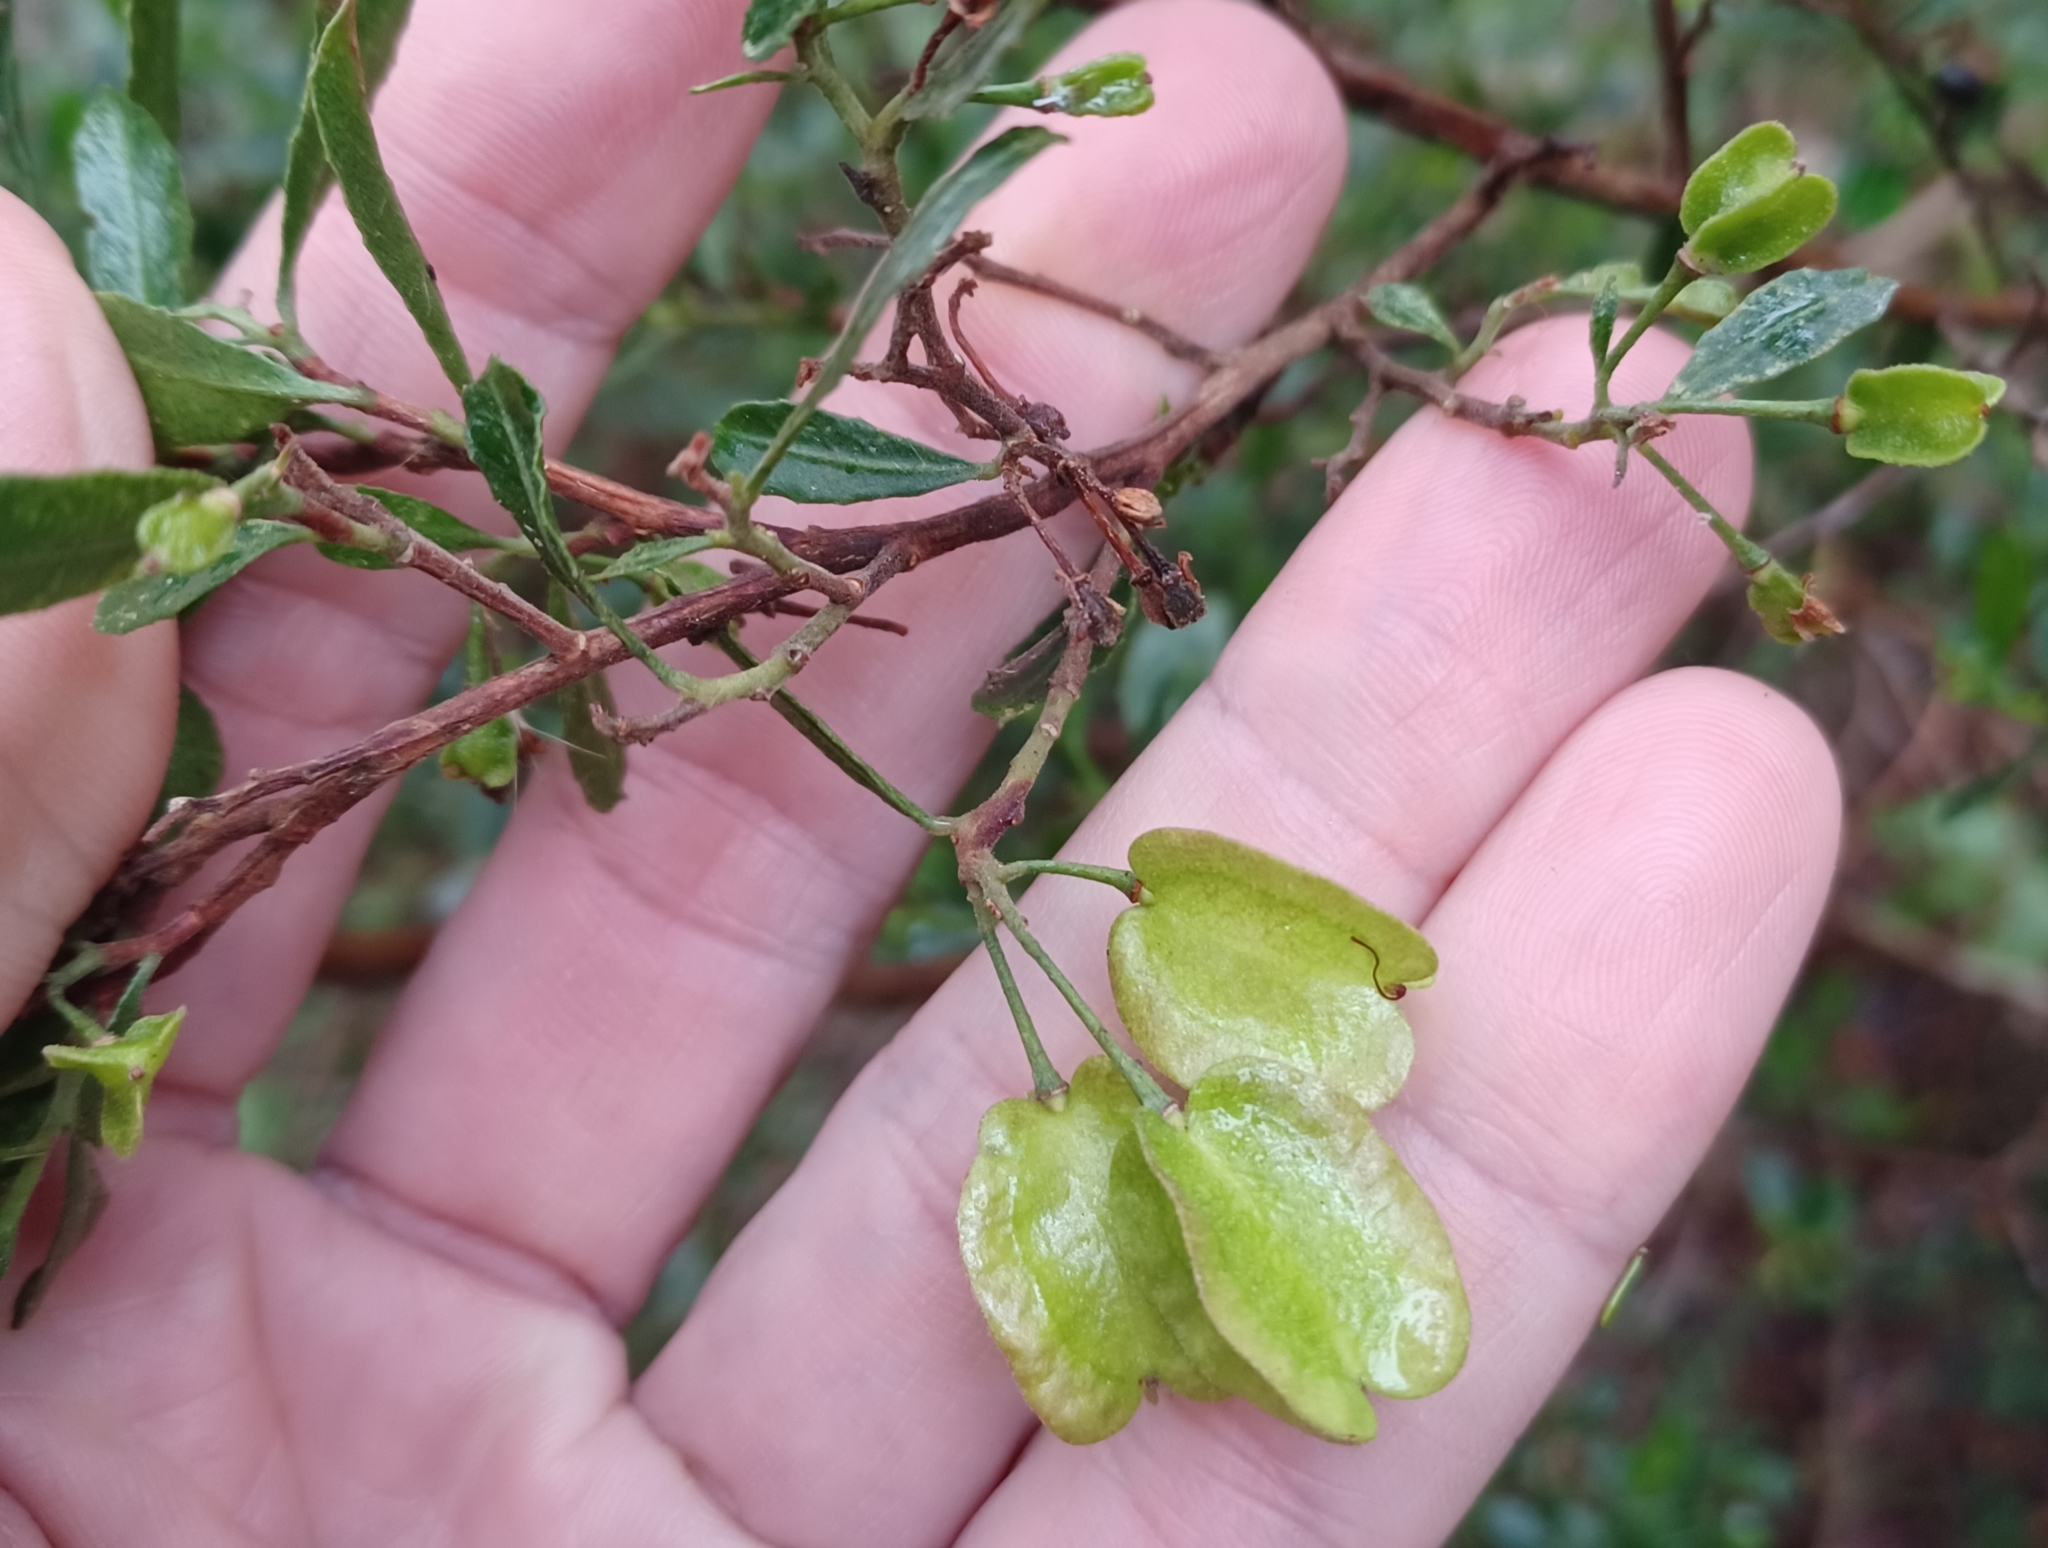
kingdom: Plantae
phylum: Tracheophyta
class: Magnoliopsida
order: Sapindales
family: Sapindaceae
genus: Dodonaea
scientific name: Dodonaea viscosa
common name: Hopbush
